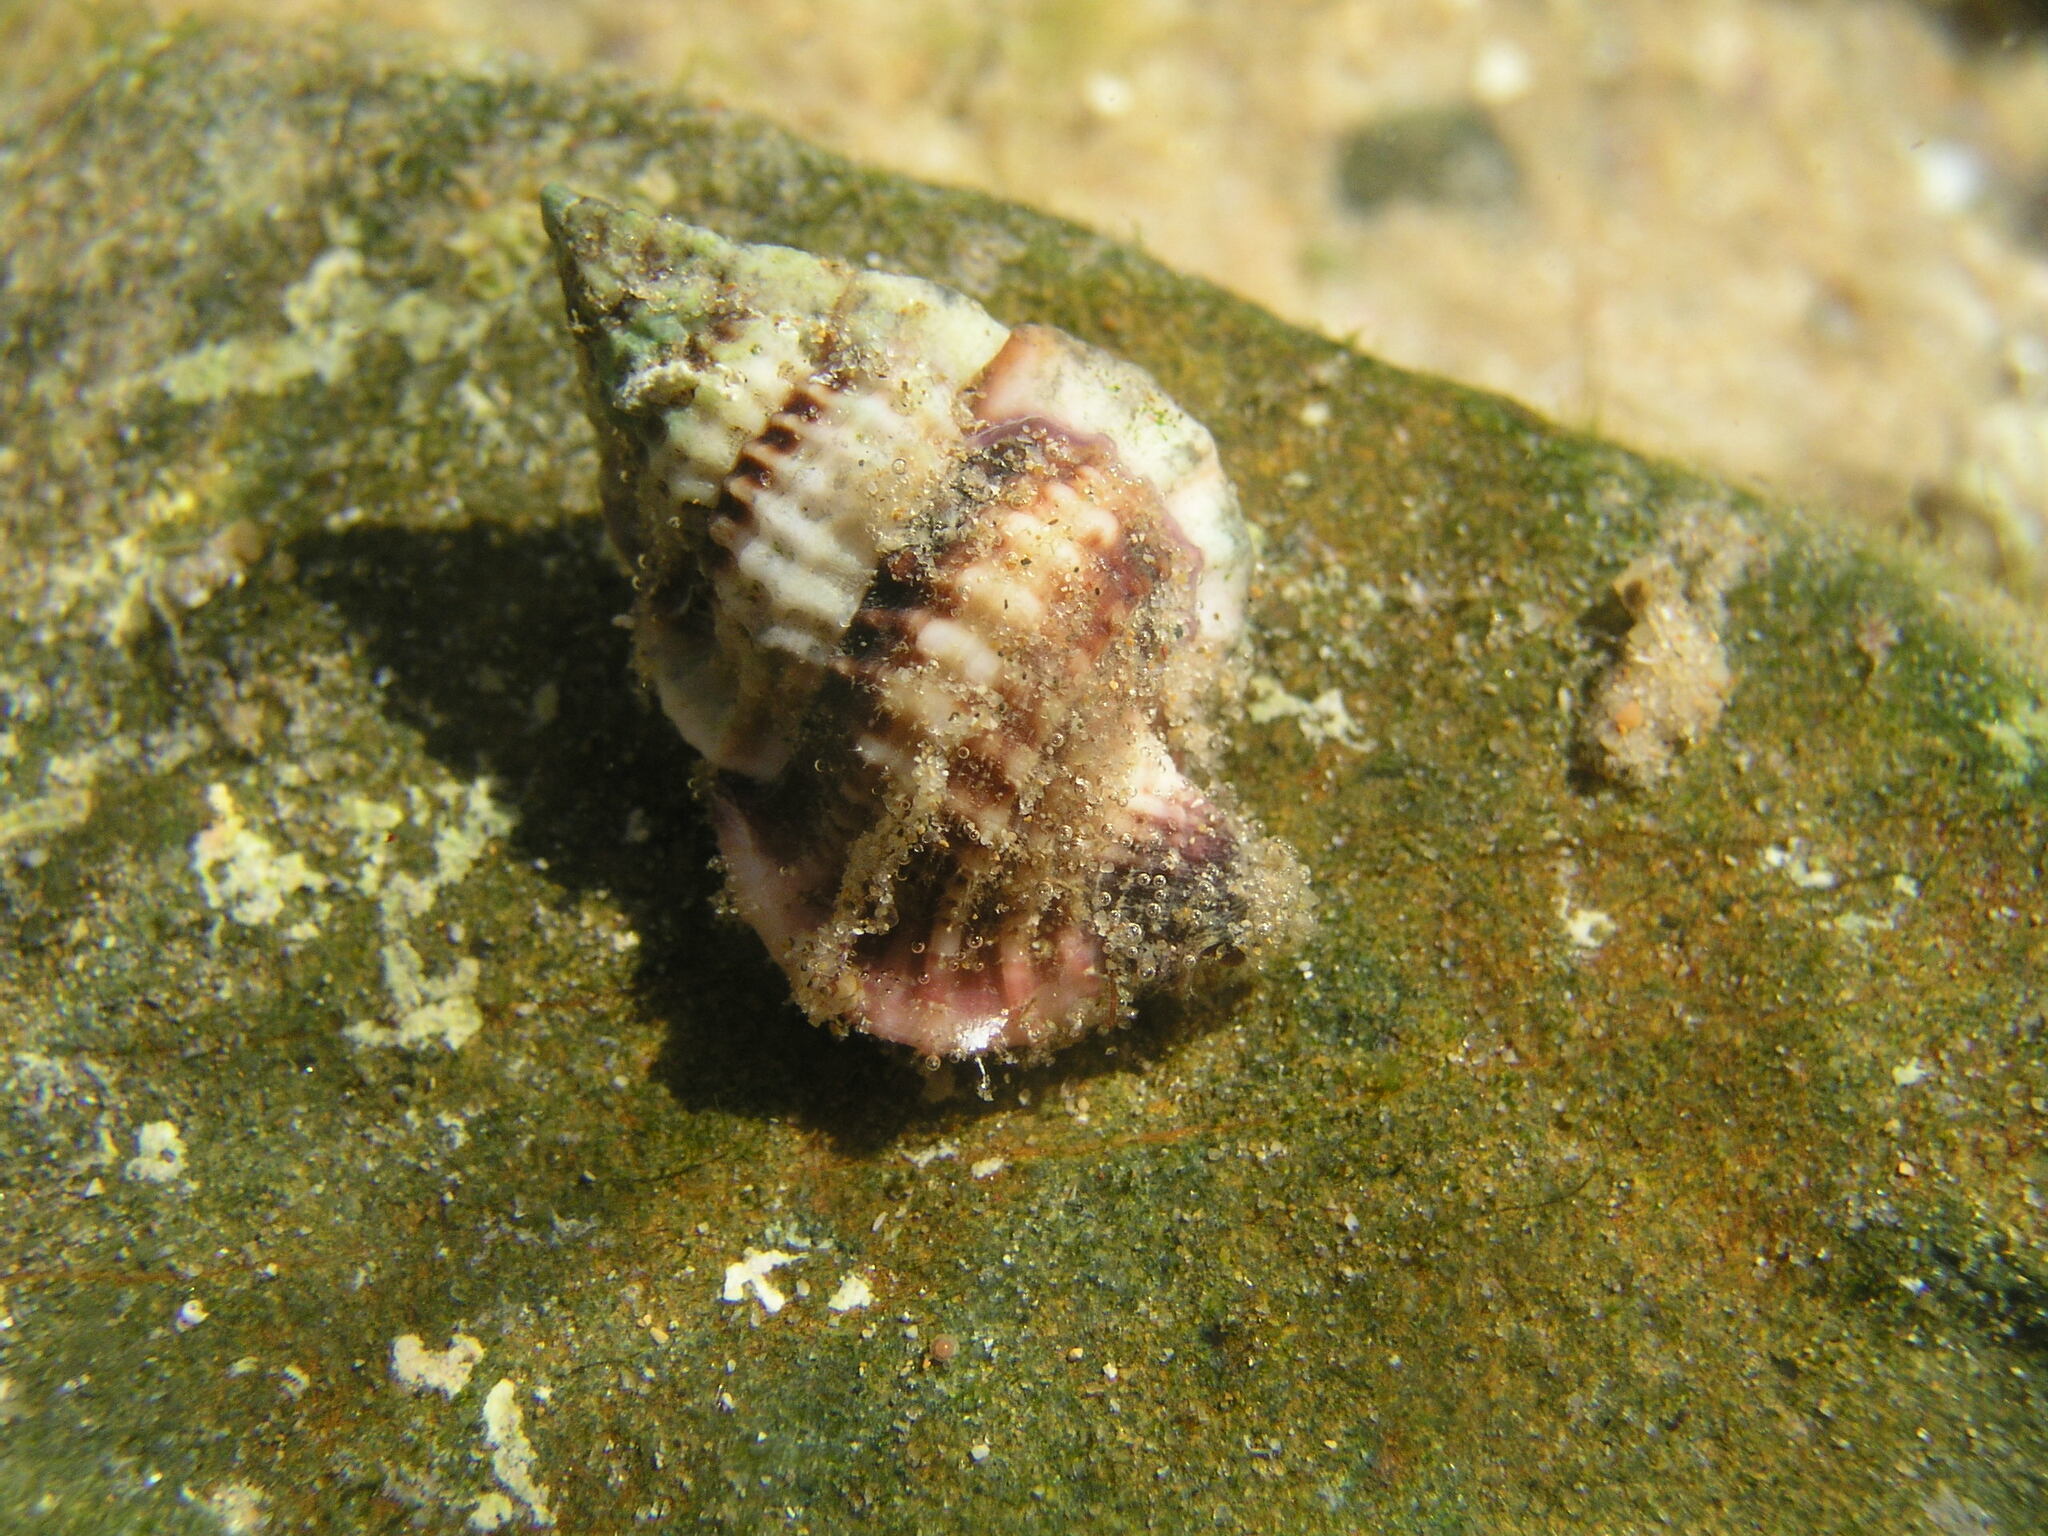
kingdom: Animalia
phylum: Mollusca
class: Gastropoda
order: Littorinimorpha
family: Cymatiidae
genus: Gyrineum
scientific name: Gyrineum lacunatum
